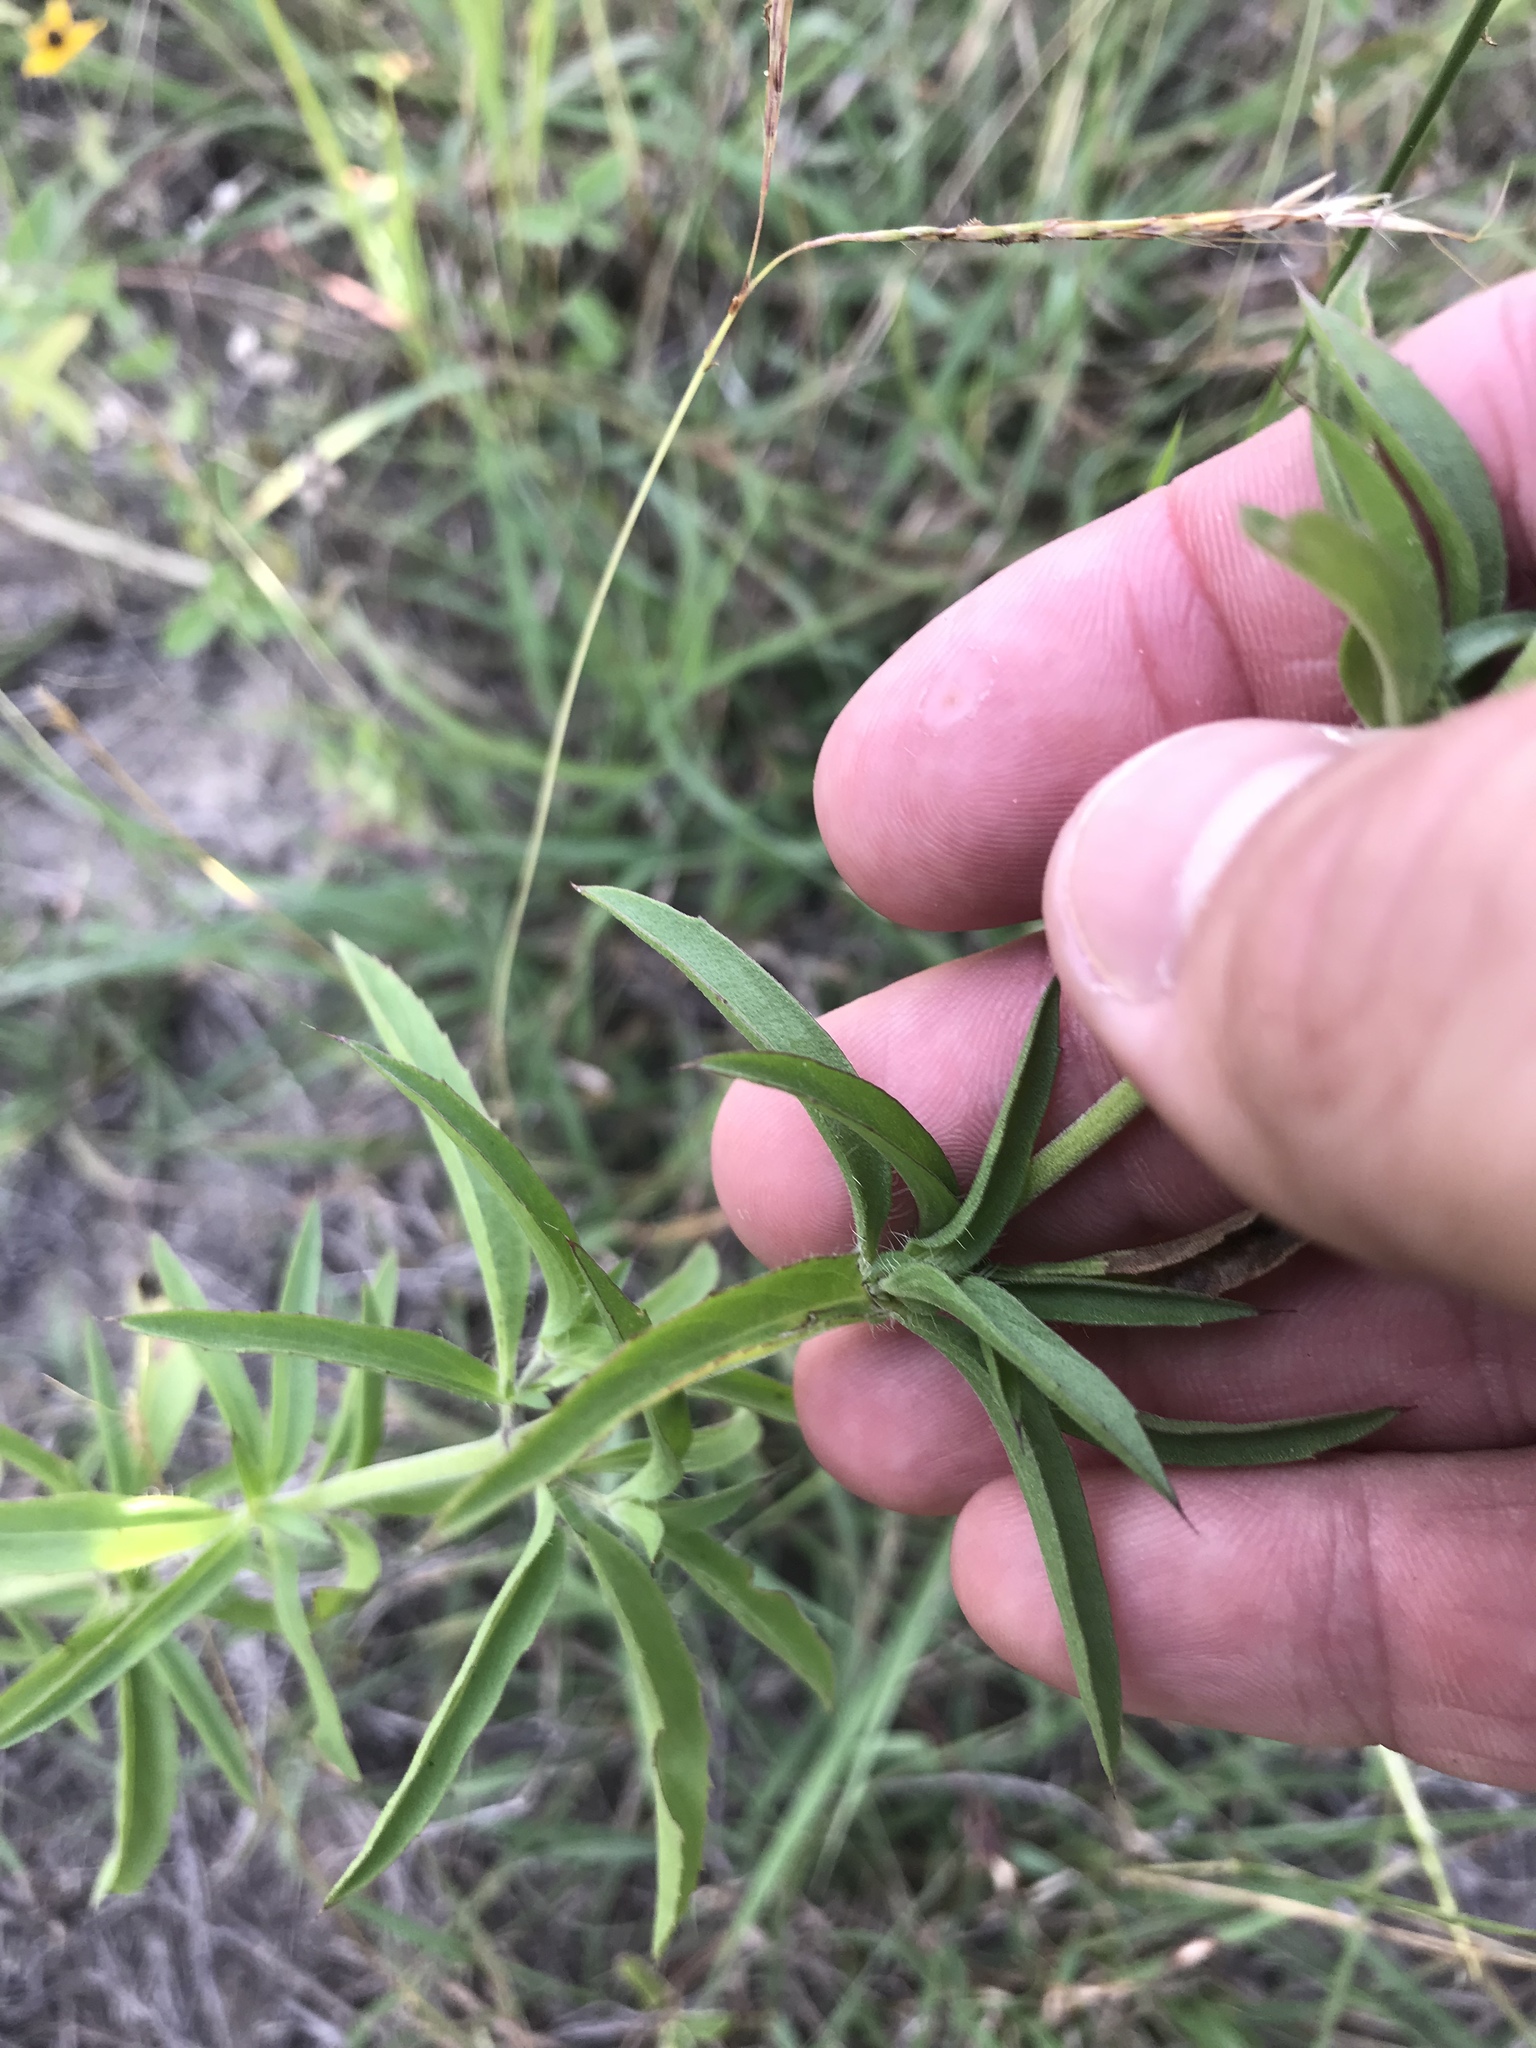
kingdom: Plantae
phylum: Tracheophyta
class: Magnoliopsida
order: Lamiales
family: Lamiaceae
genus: Monarda
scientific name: Monarda citriodora
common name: Lemon beebalm
